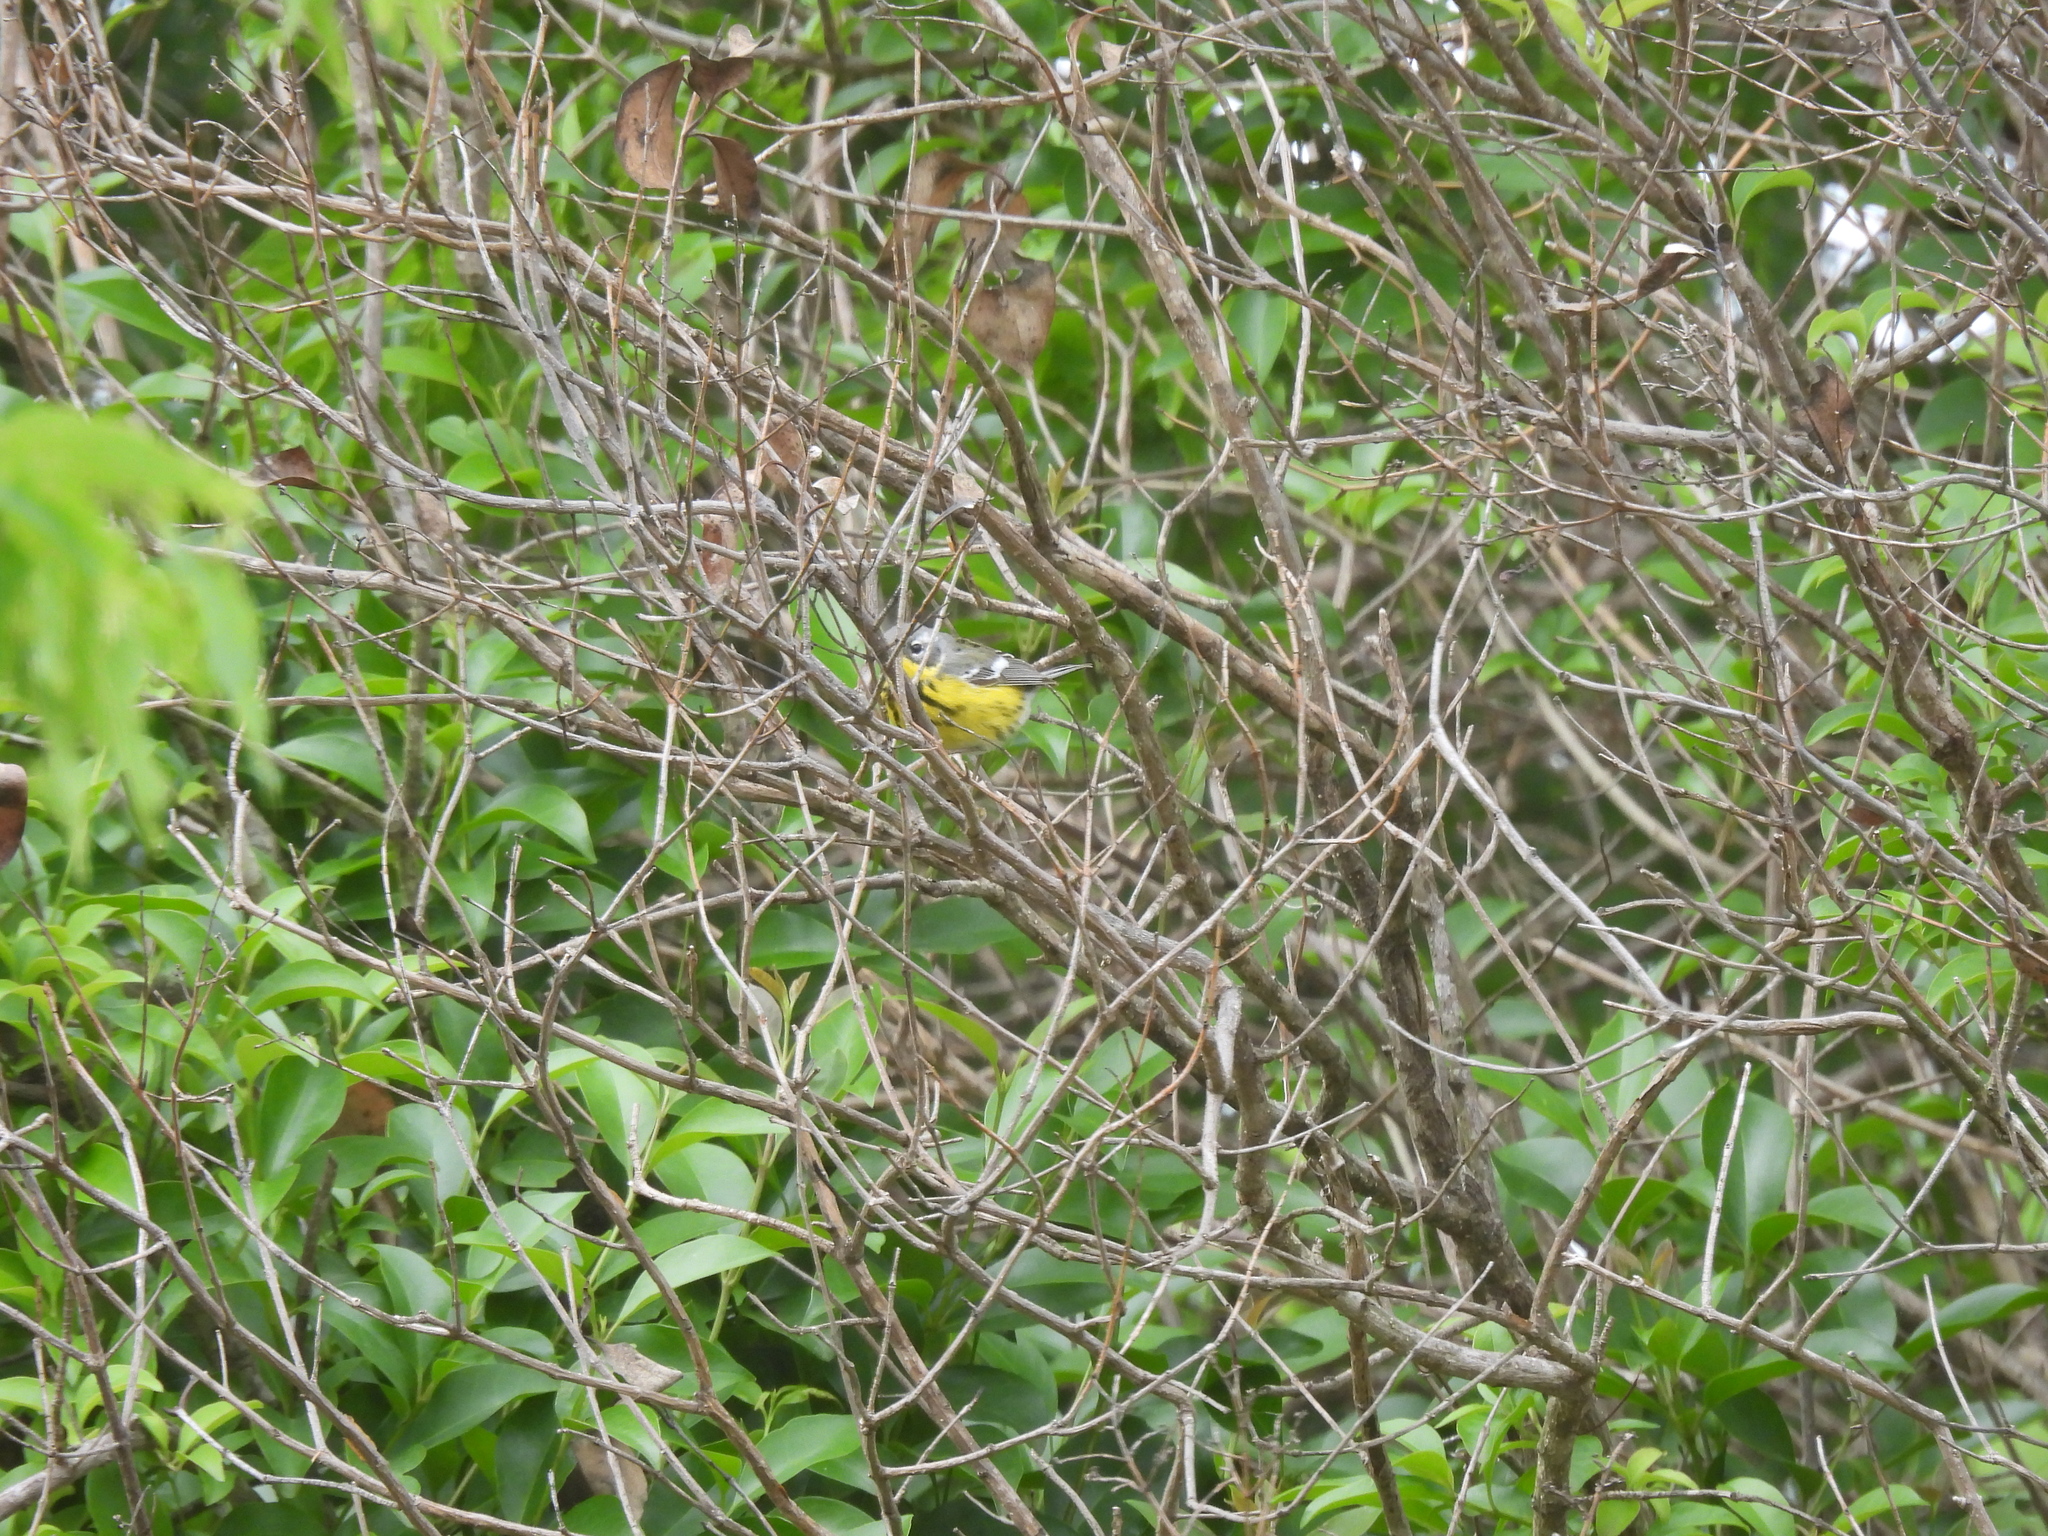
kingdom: Animalia
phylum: Chordata
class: Aves
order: Passeriformes
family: Parulidae
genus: Setophaga
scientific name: Setophaga magnolia
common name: Magnolia warbler
